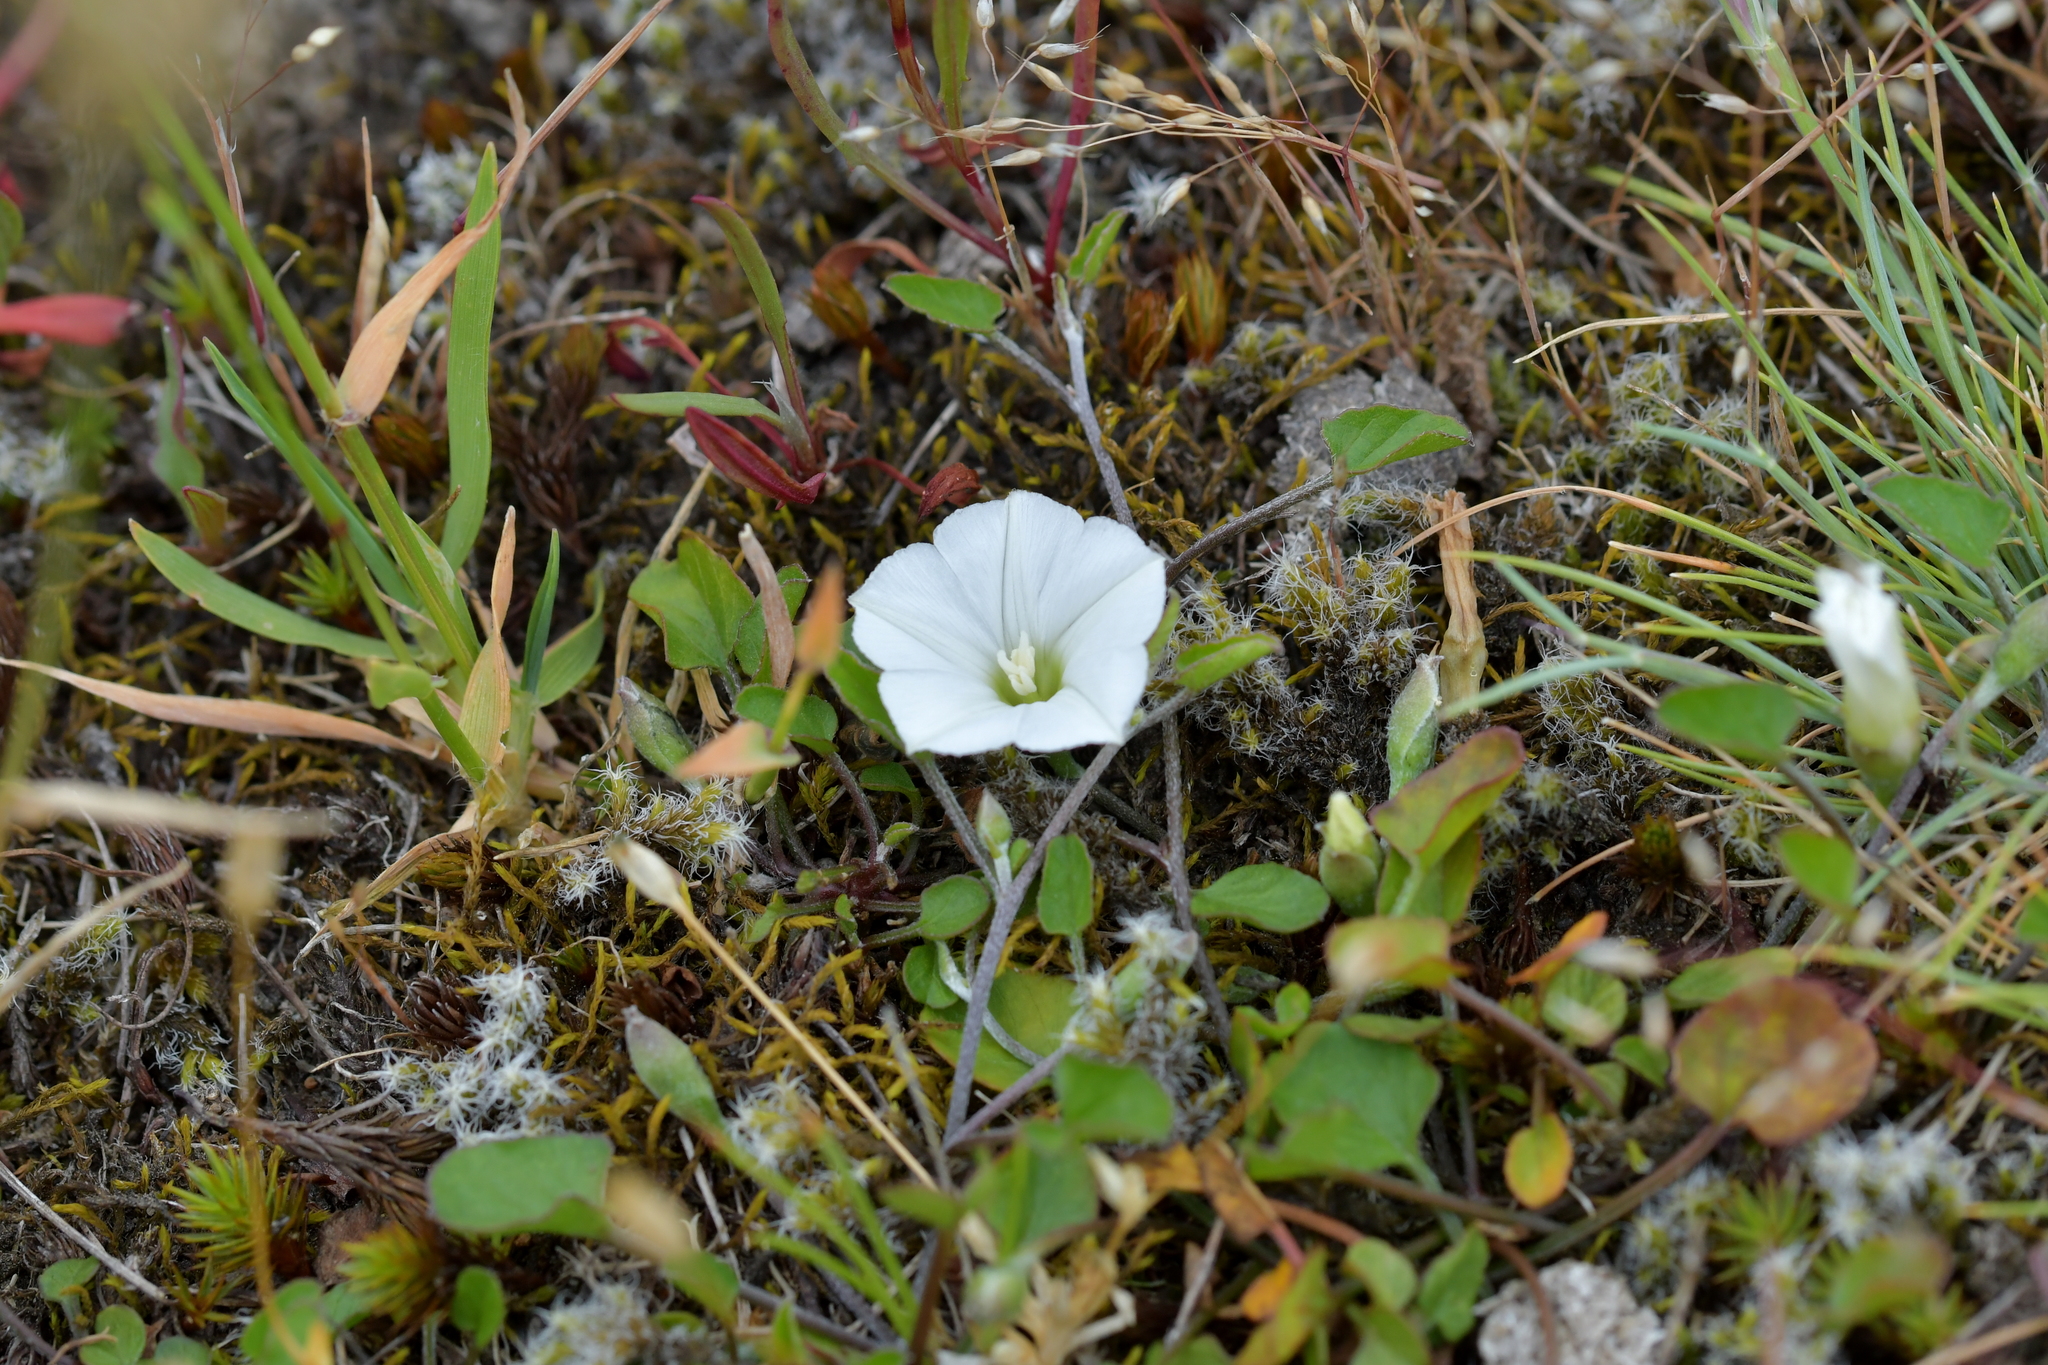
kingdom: Plantae
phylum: Tracheophyta
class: Magnoliopsida
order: Solanales
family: Convolvulaceae
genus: Convolvulus
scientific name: Convolvulus waitaha
